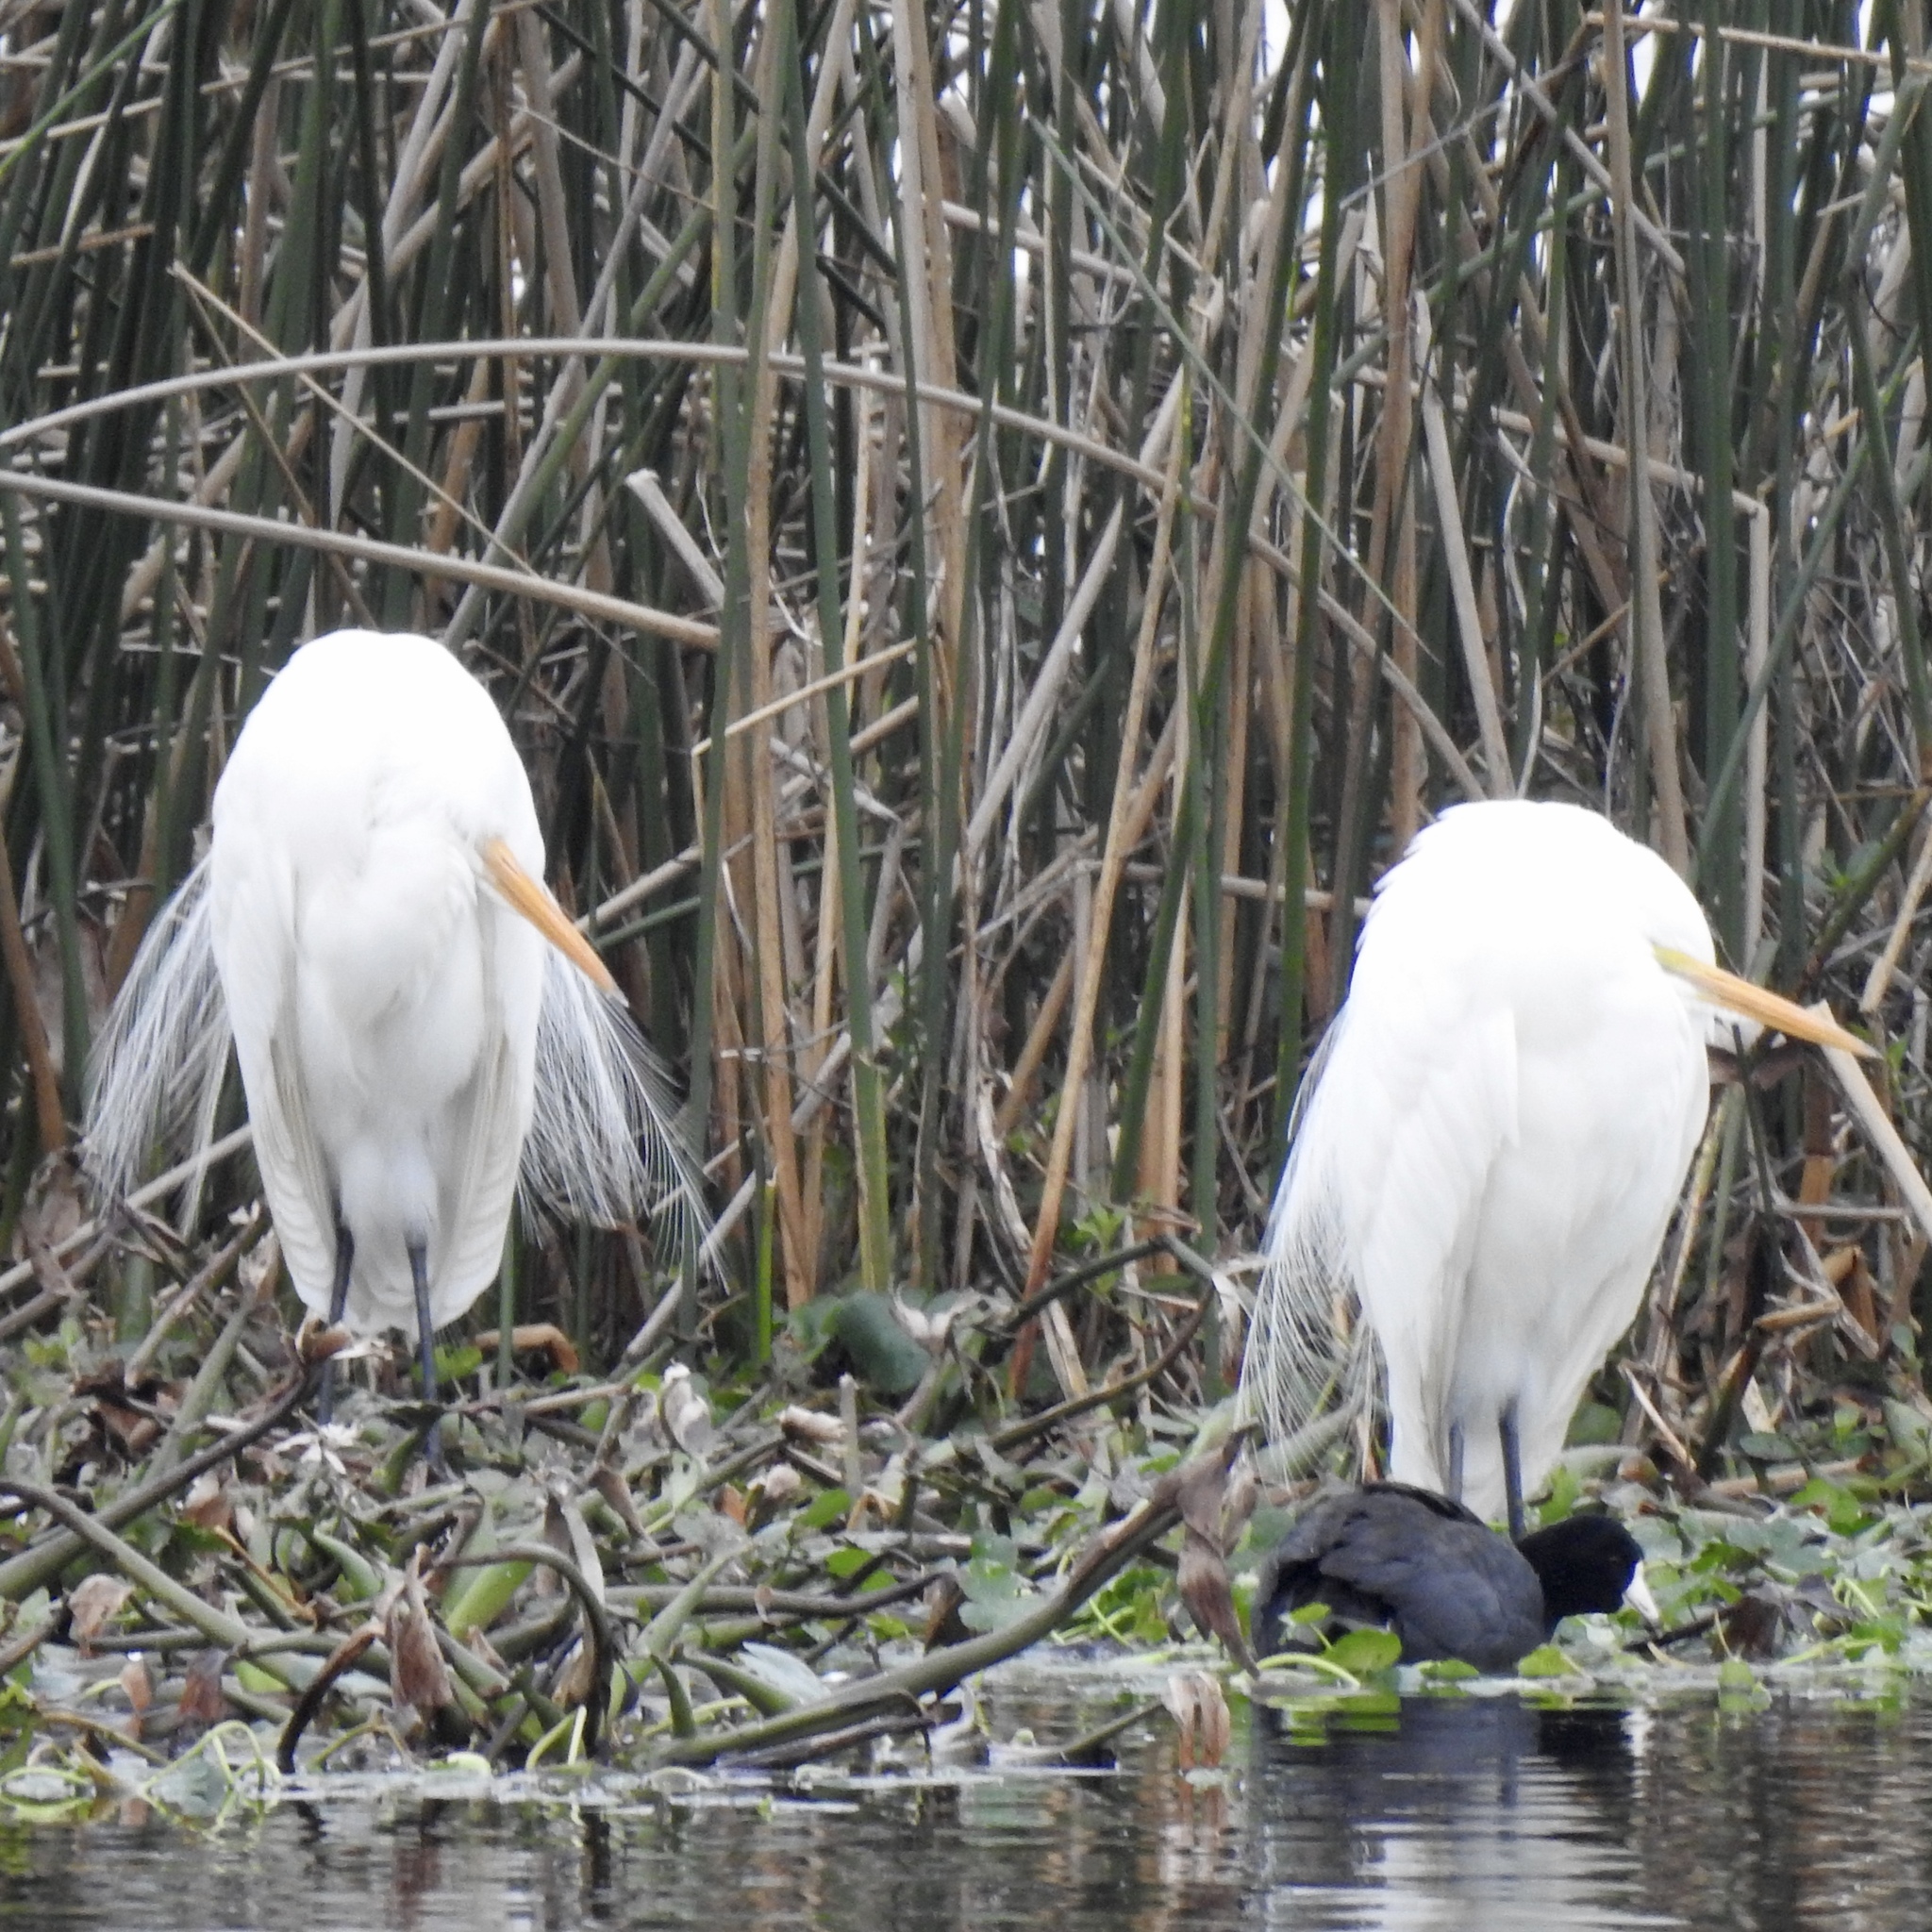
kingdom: Animalia
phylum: Chordata
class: Aves
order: Pelecaniformes
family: Ardeidae
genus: Ardea
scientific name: Ardea alba
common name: Great egret
